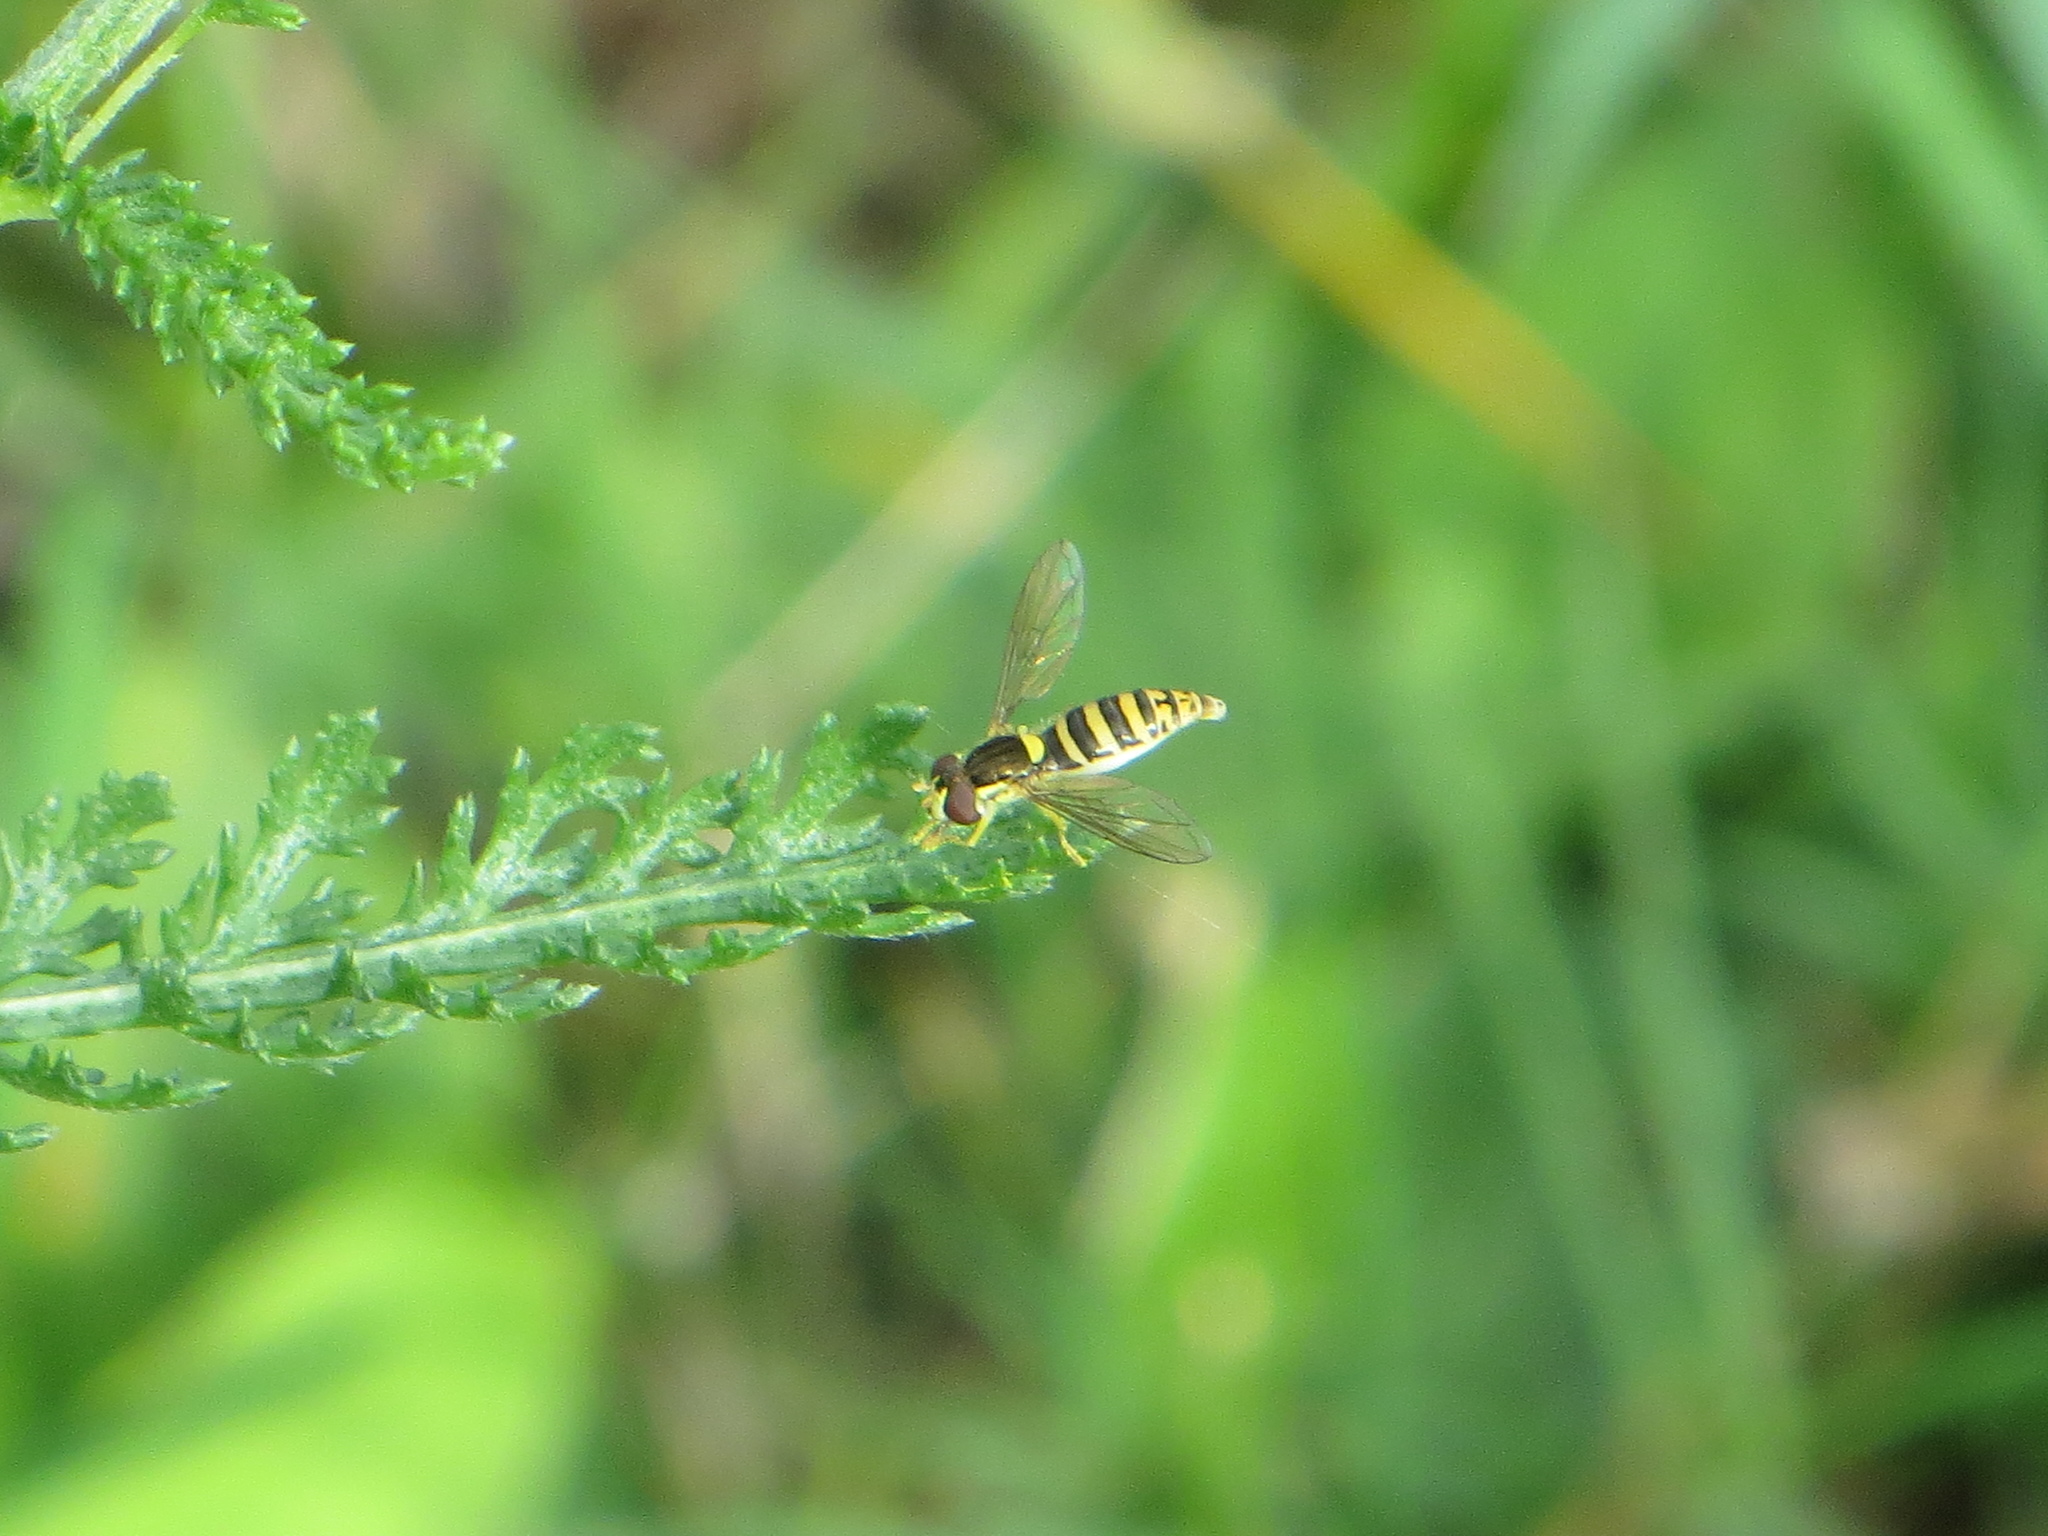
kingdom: Animalia
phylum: Arthropoda
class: Insecta
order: Diptera
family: Syrphidae
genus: Sphaerophoria
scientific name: Sphaerophoria
